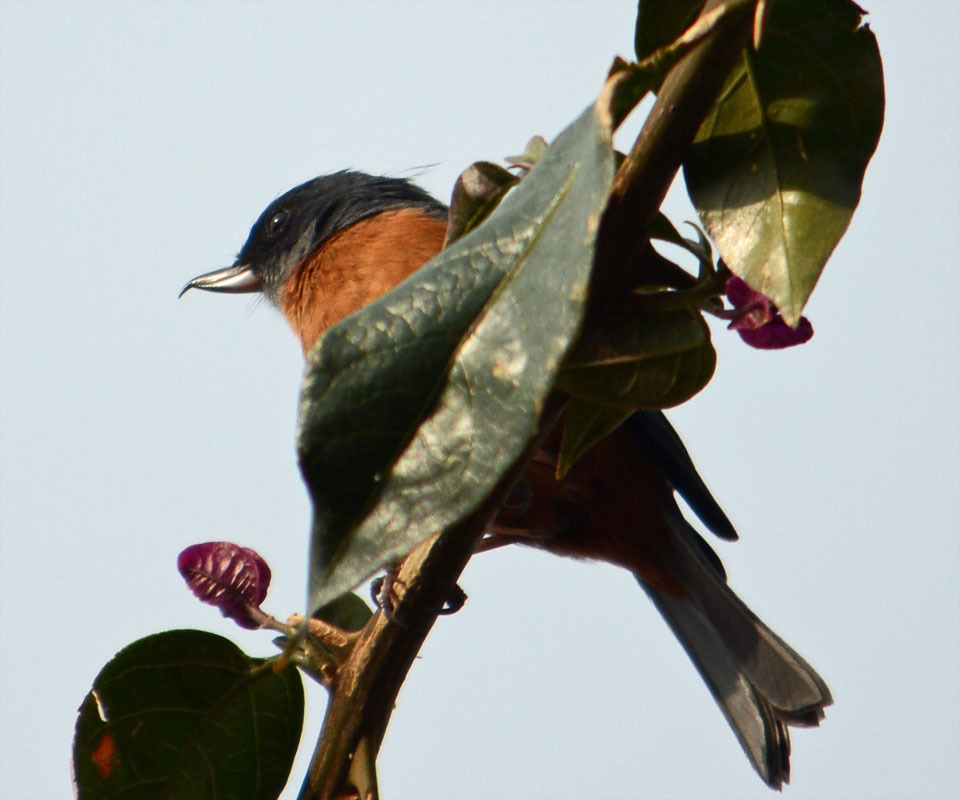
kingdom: Animalia
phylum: Chordata
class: Aves
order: Passeriformes
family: Thraupidae
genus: Diglossa
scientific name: Diglossa baritula
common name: Cinnamon-bellied flowerpiercer
